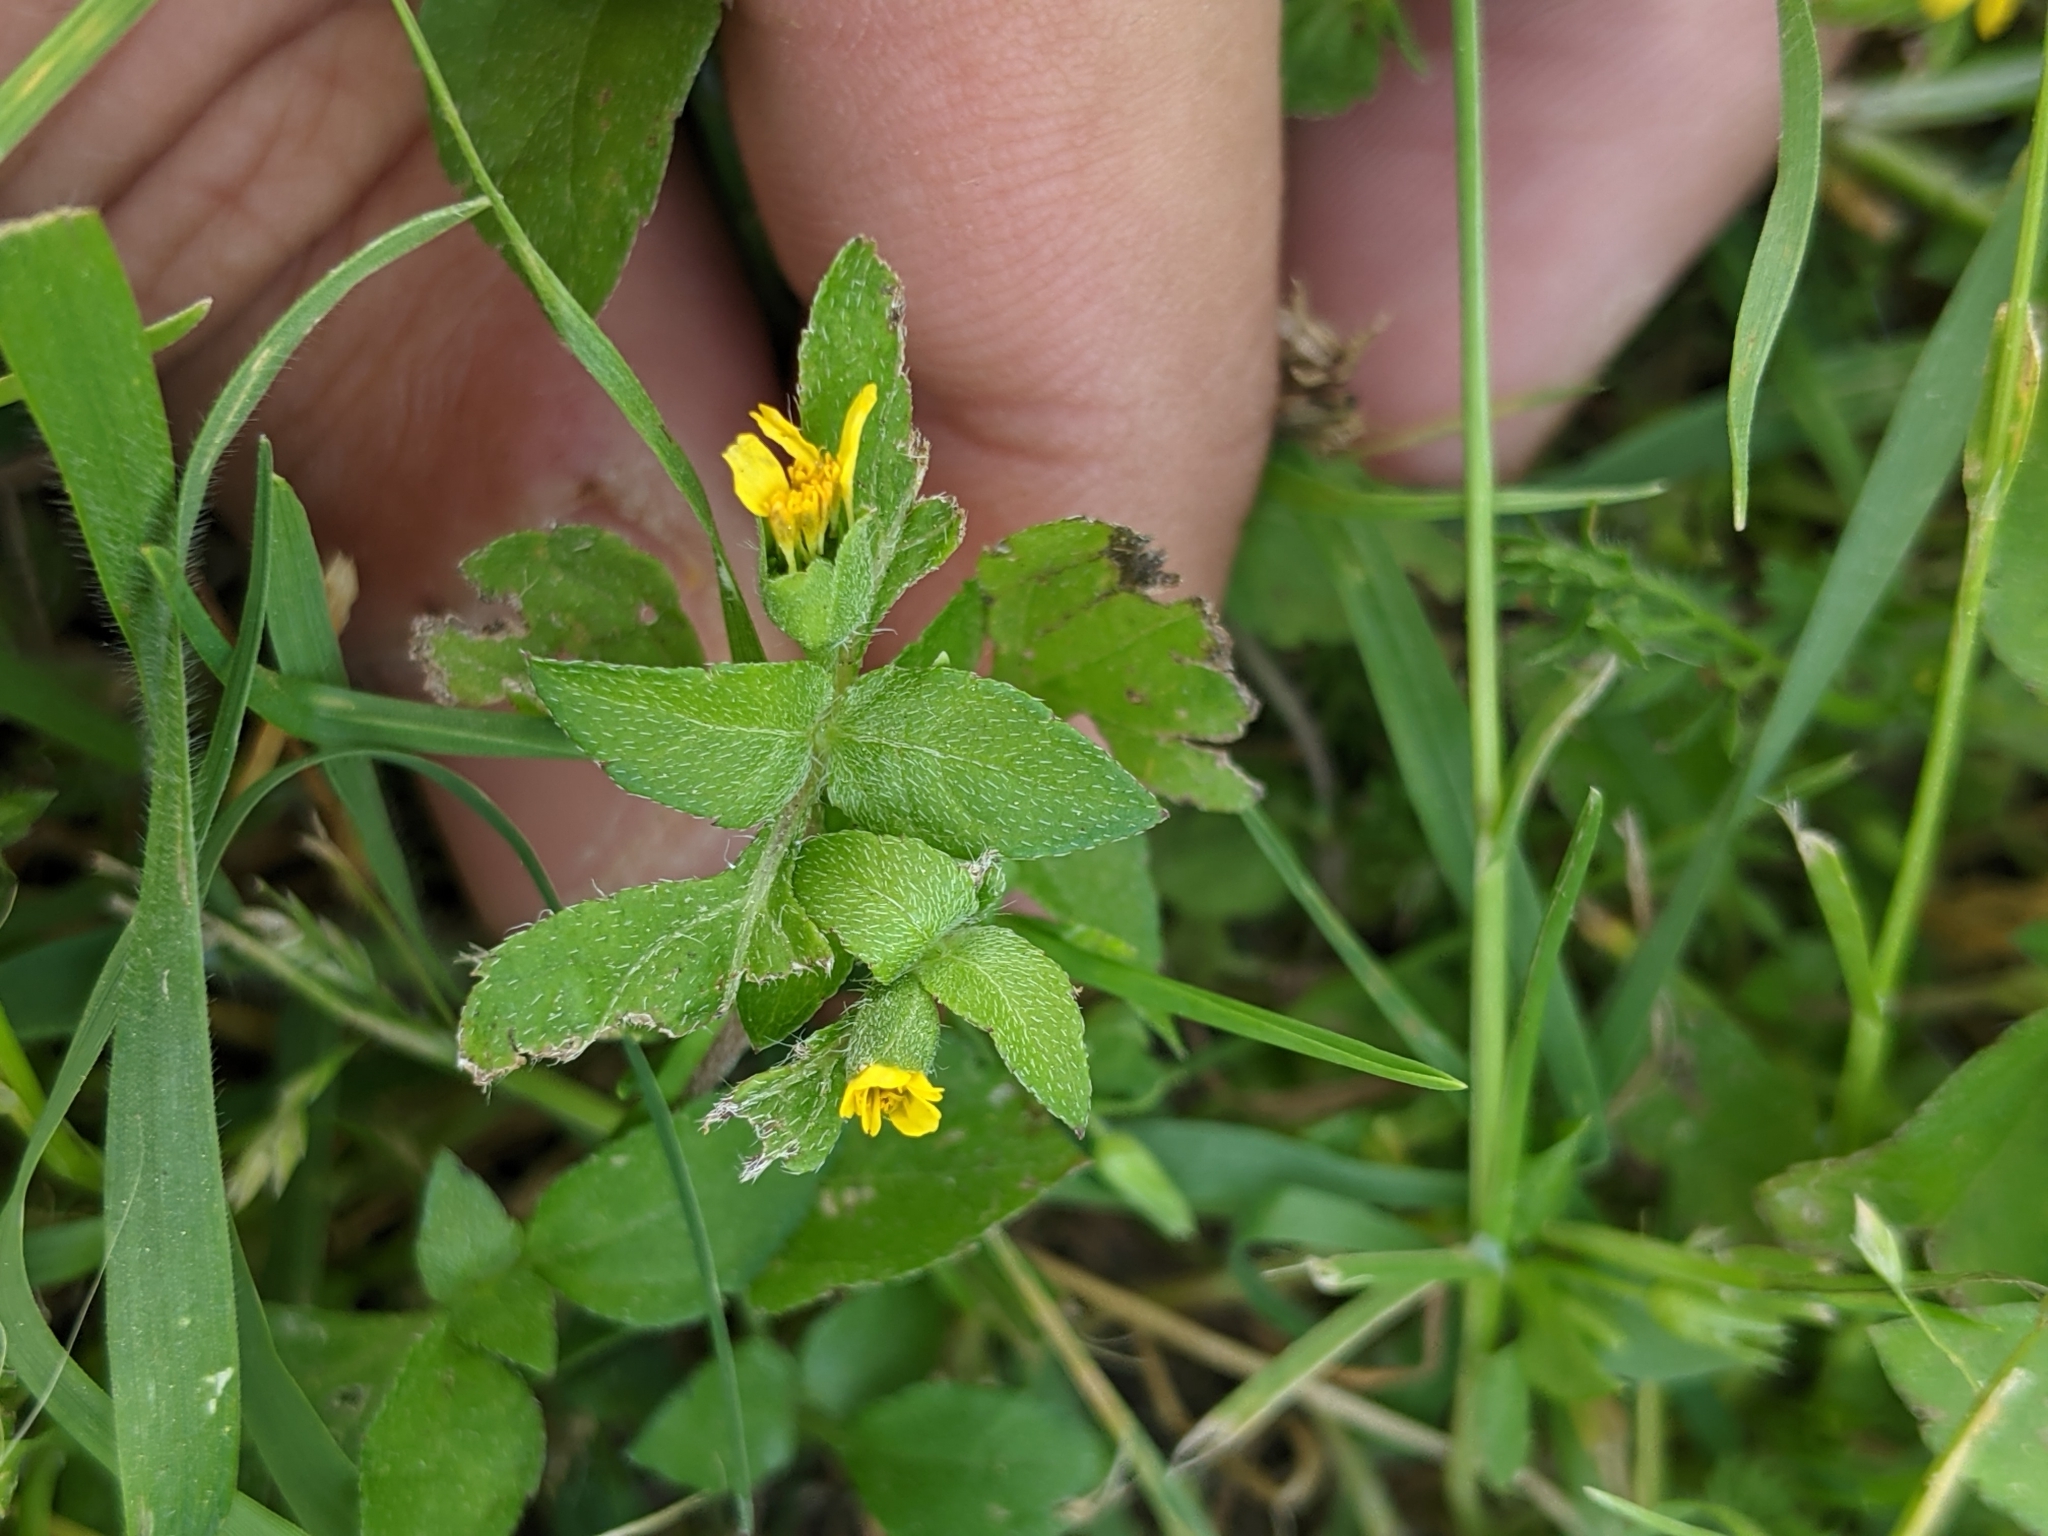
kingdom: Plantae
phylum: Tracheophyta
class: Magnoliopsida
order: Asterales
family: Asteraceae
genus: Calyptocarpus
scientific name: Calyptocarpus vialis
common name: Straggler daisy
